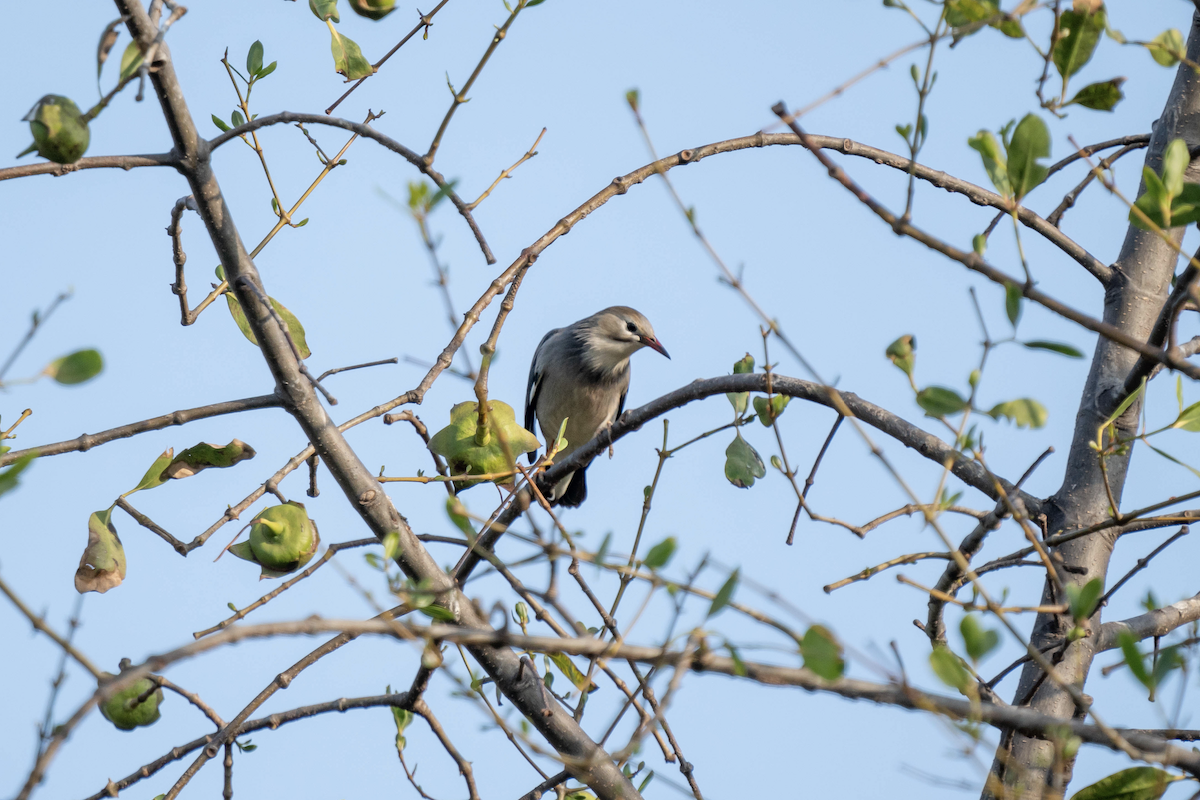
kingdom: Animalia
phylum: Chordata
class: Aves
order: Passeriformes
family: Sturnidae
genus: Spodiopsar
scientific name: Spodiopsar sericeus
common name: Red-billed starling
